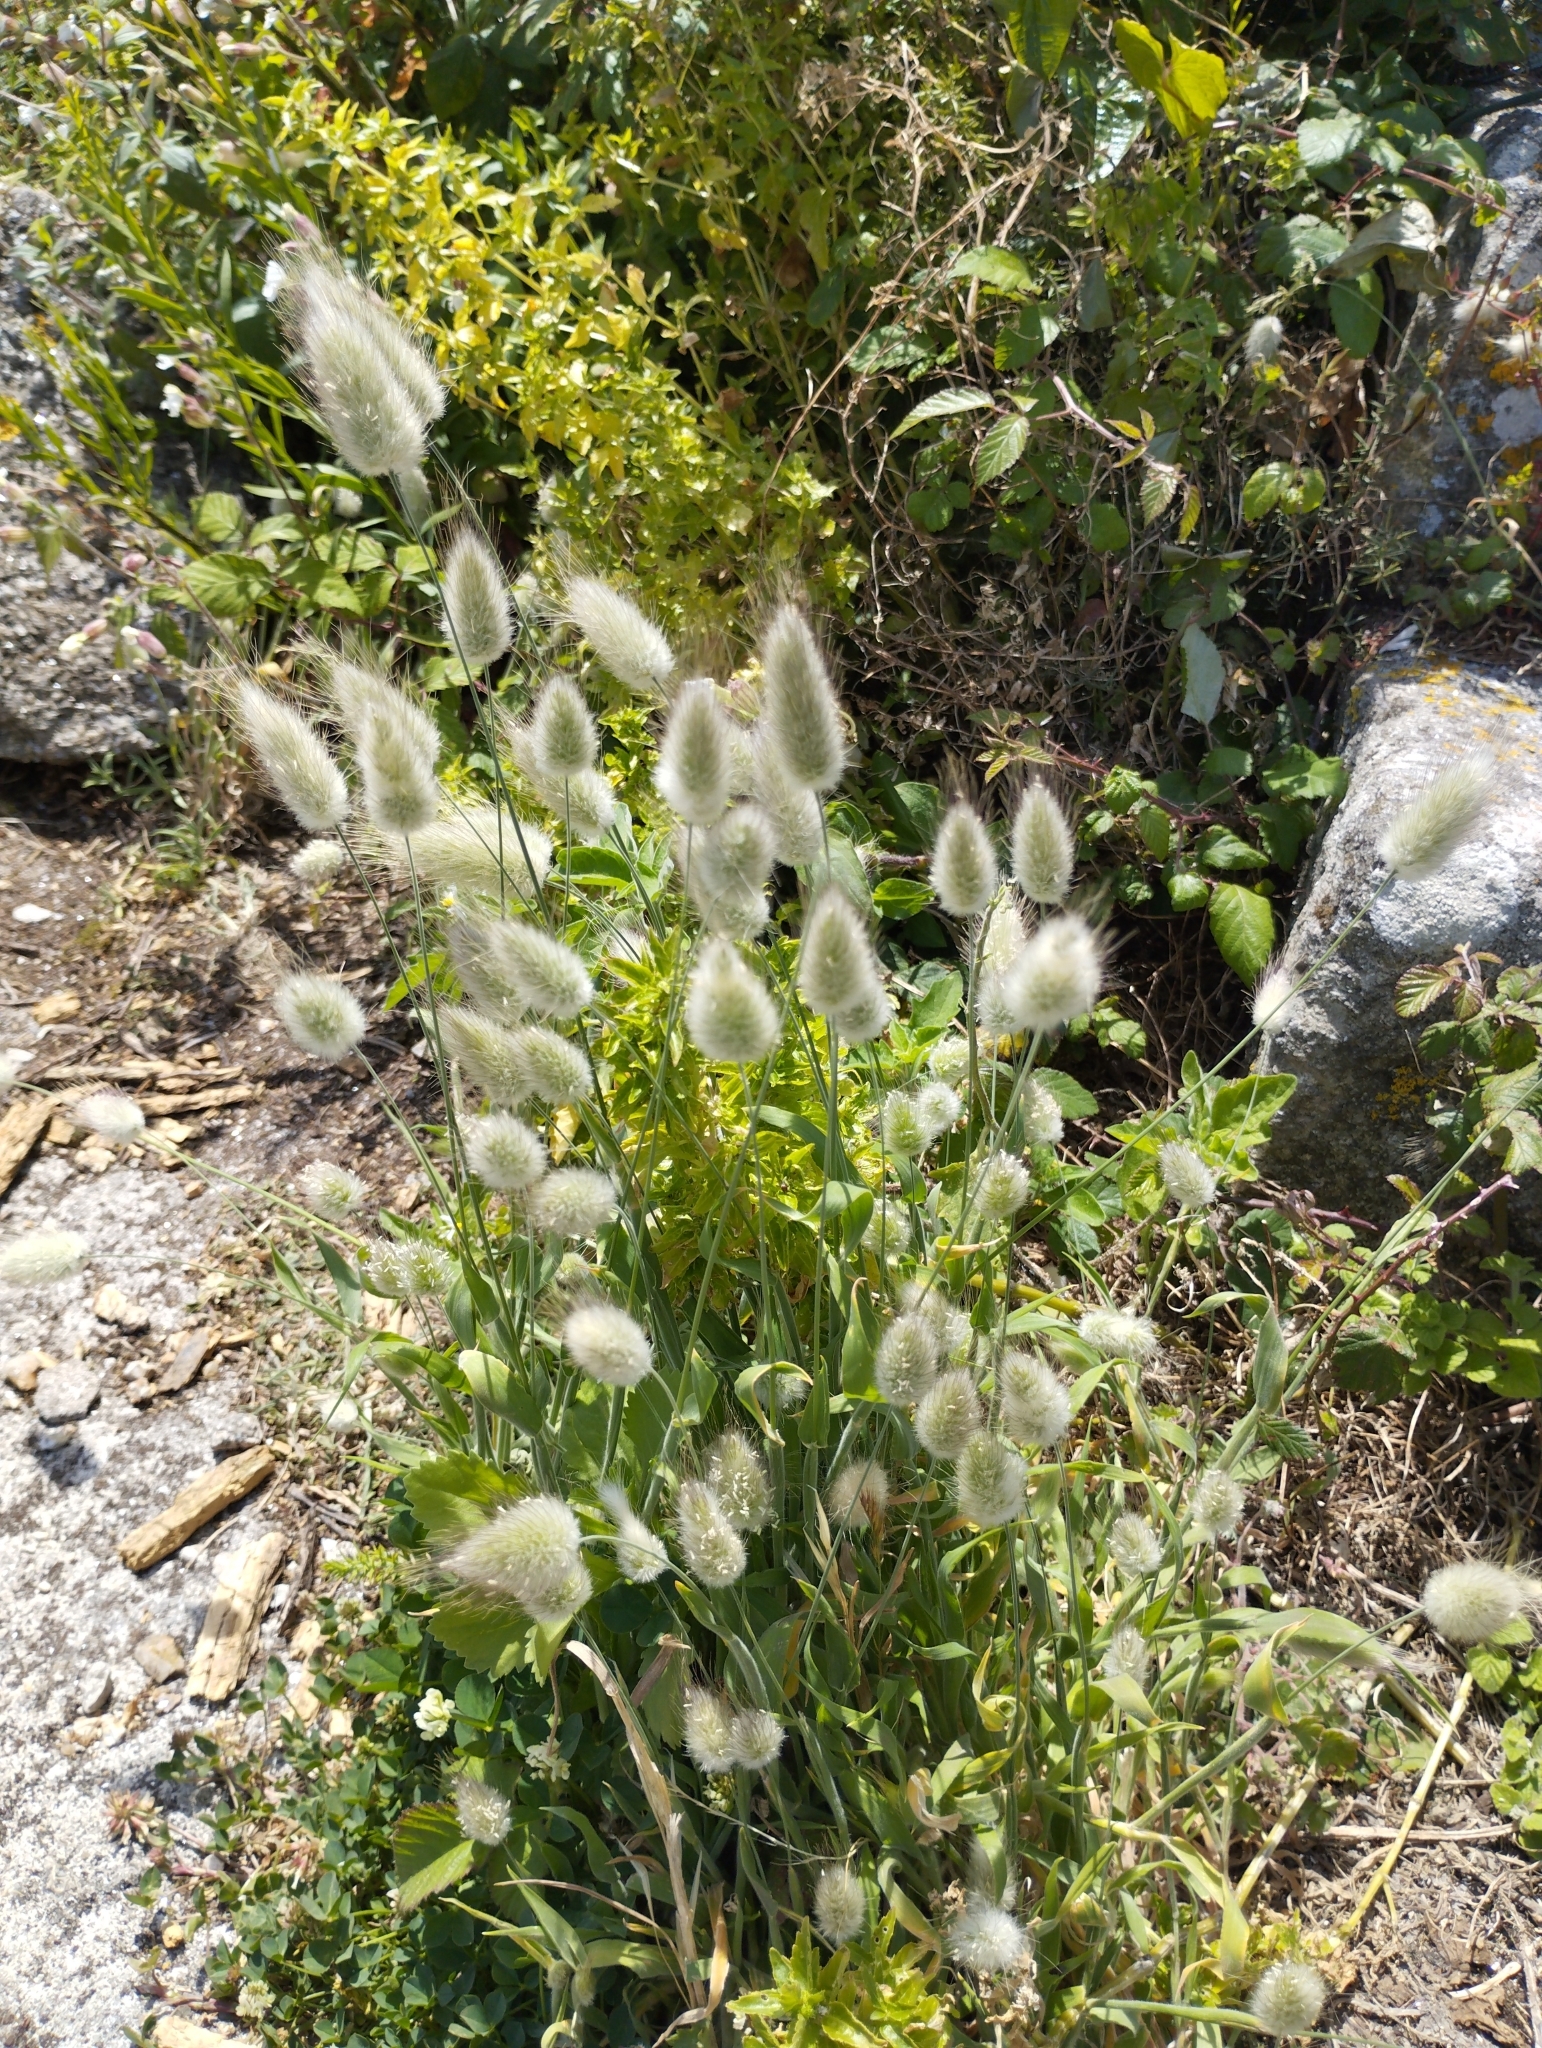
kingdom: Plantae
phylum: Tracheophyta
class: Liliopsida
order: Poales
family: Poaceae
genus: Lagurus
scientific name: Lagurus ovatus
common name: Hare's-tail
